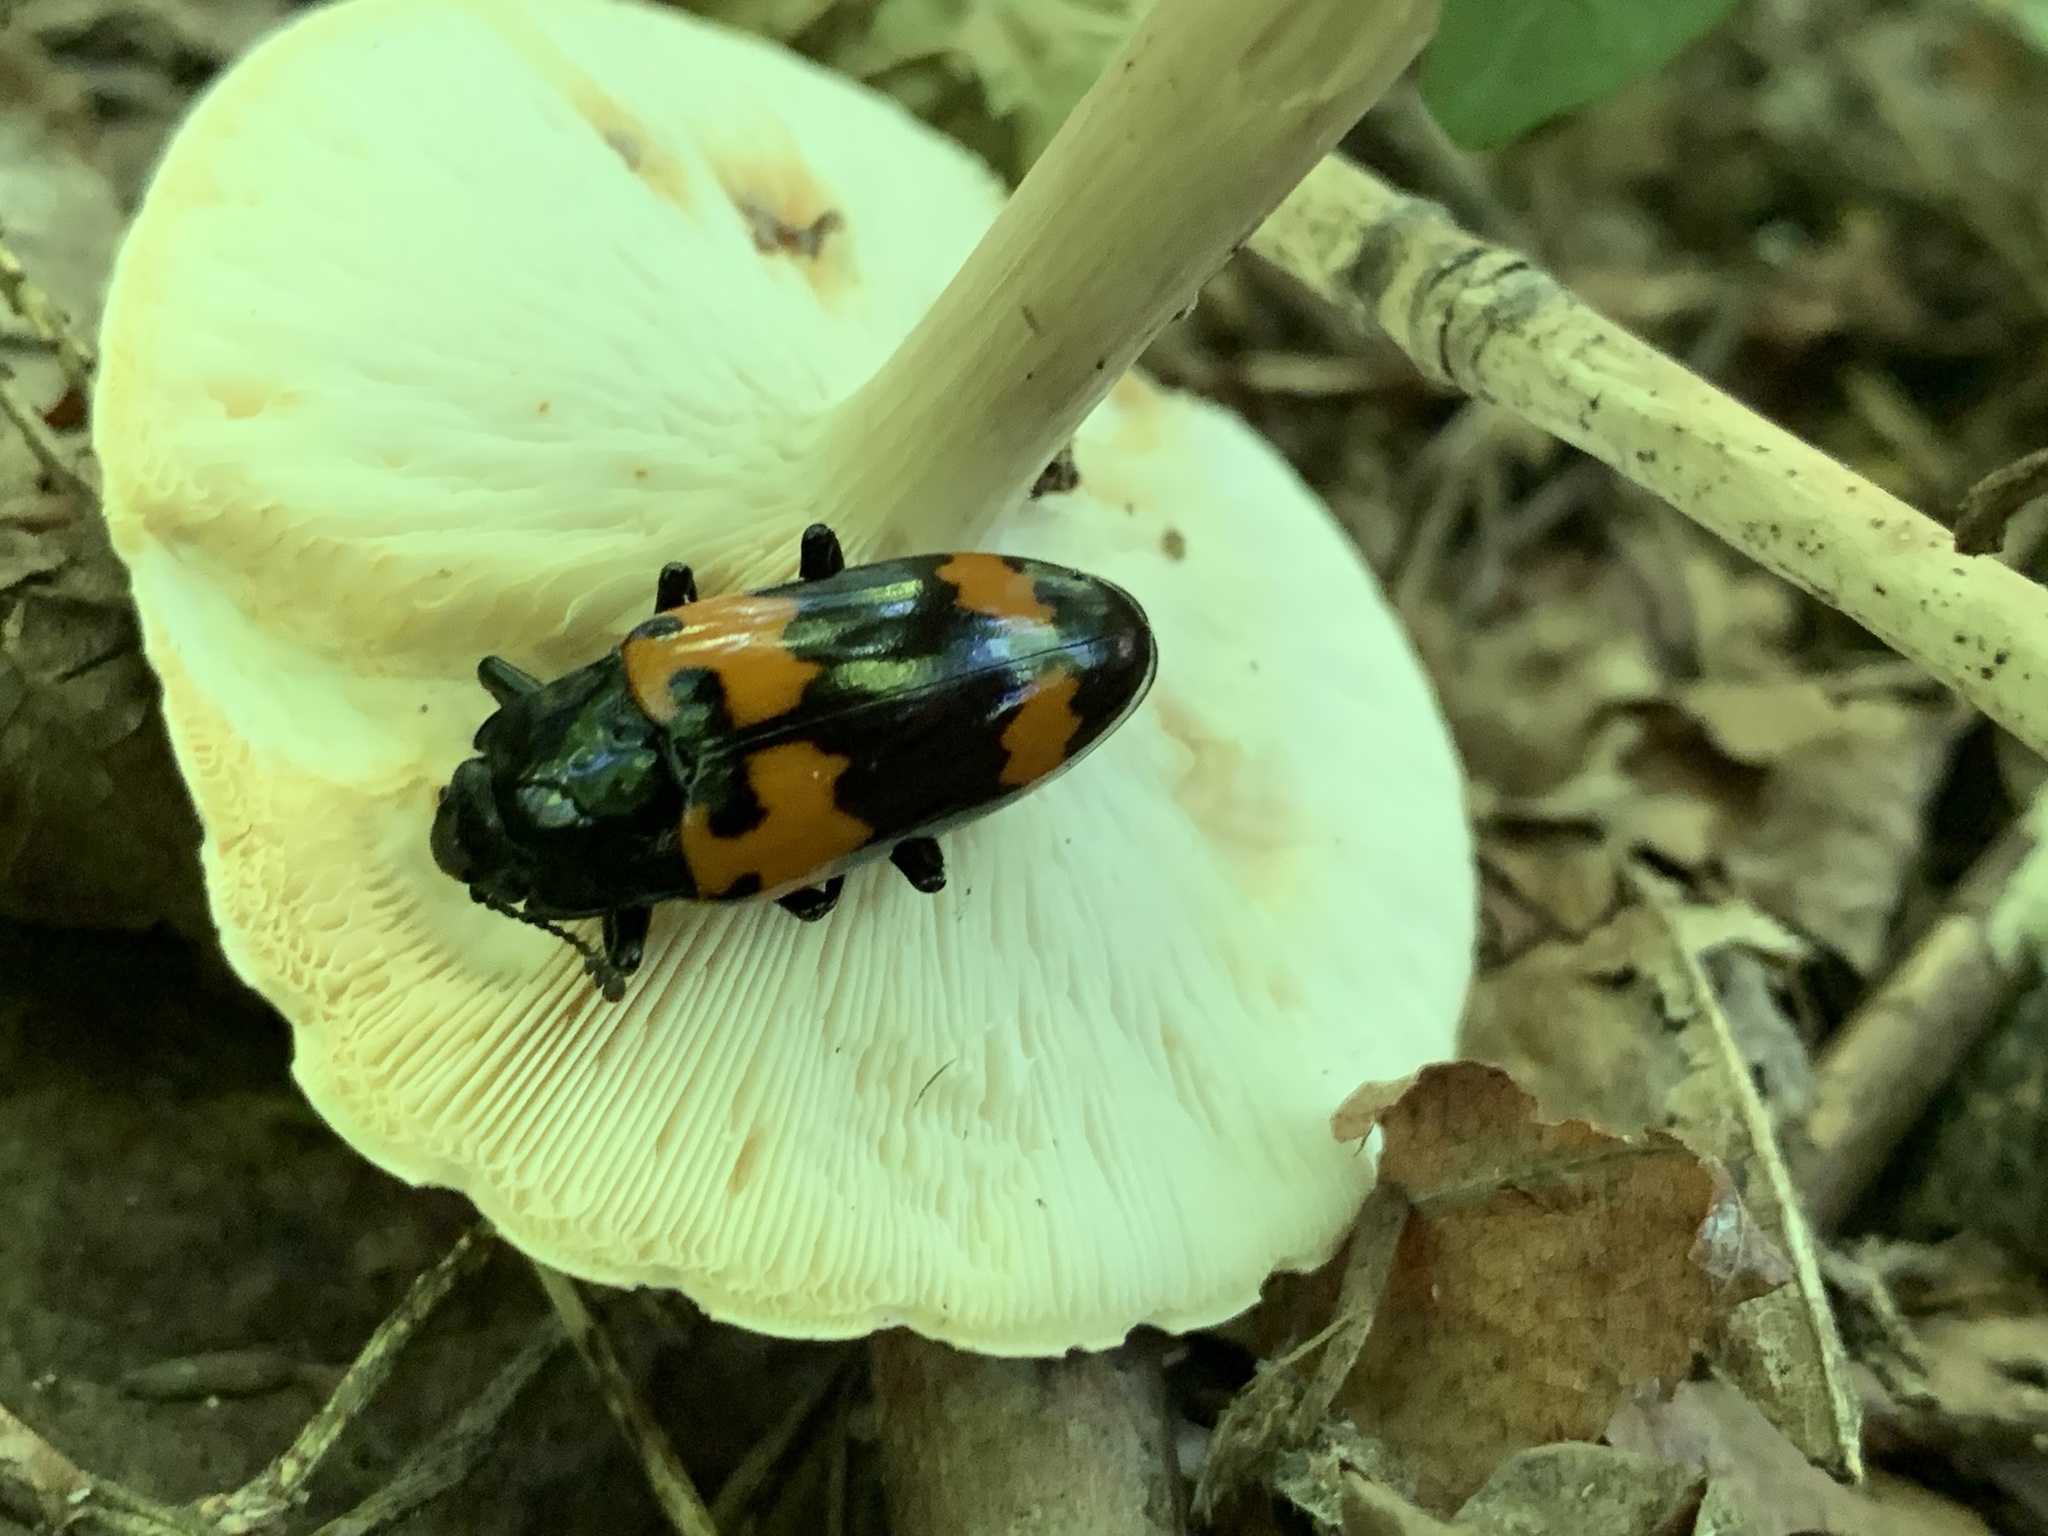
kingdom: Animalia
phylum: Arthropoda
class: Insecta
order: Coleoptera
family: Erotylidae
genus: Megalodacne
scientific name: Megalodacne heros
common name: Pleasing fungus beetle
